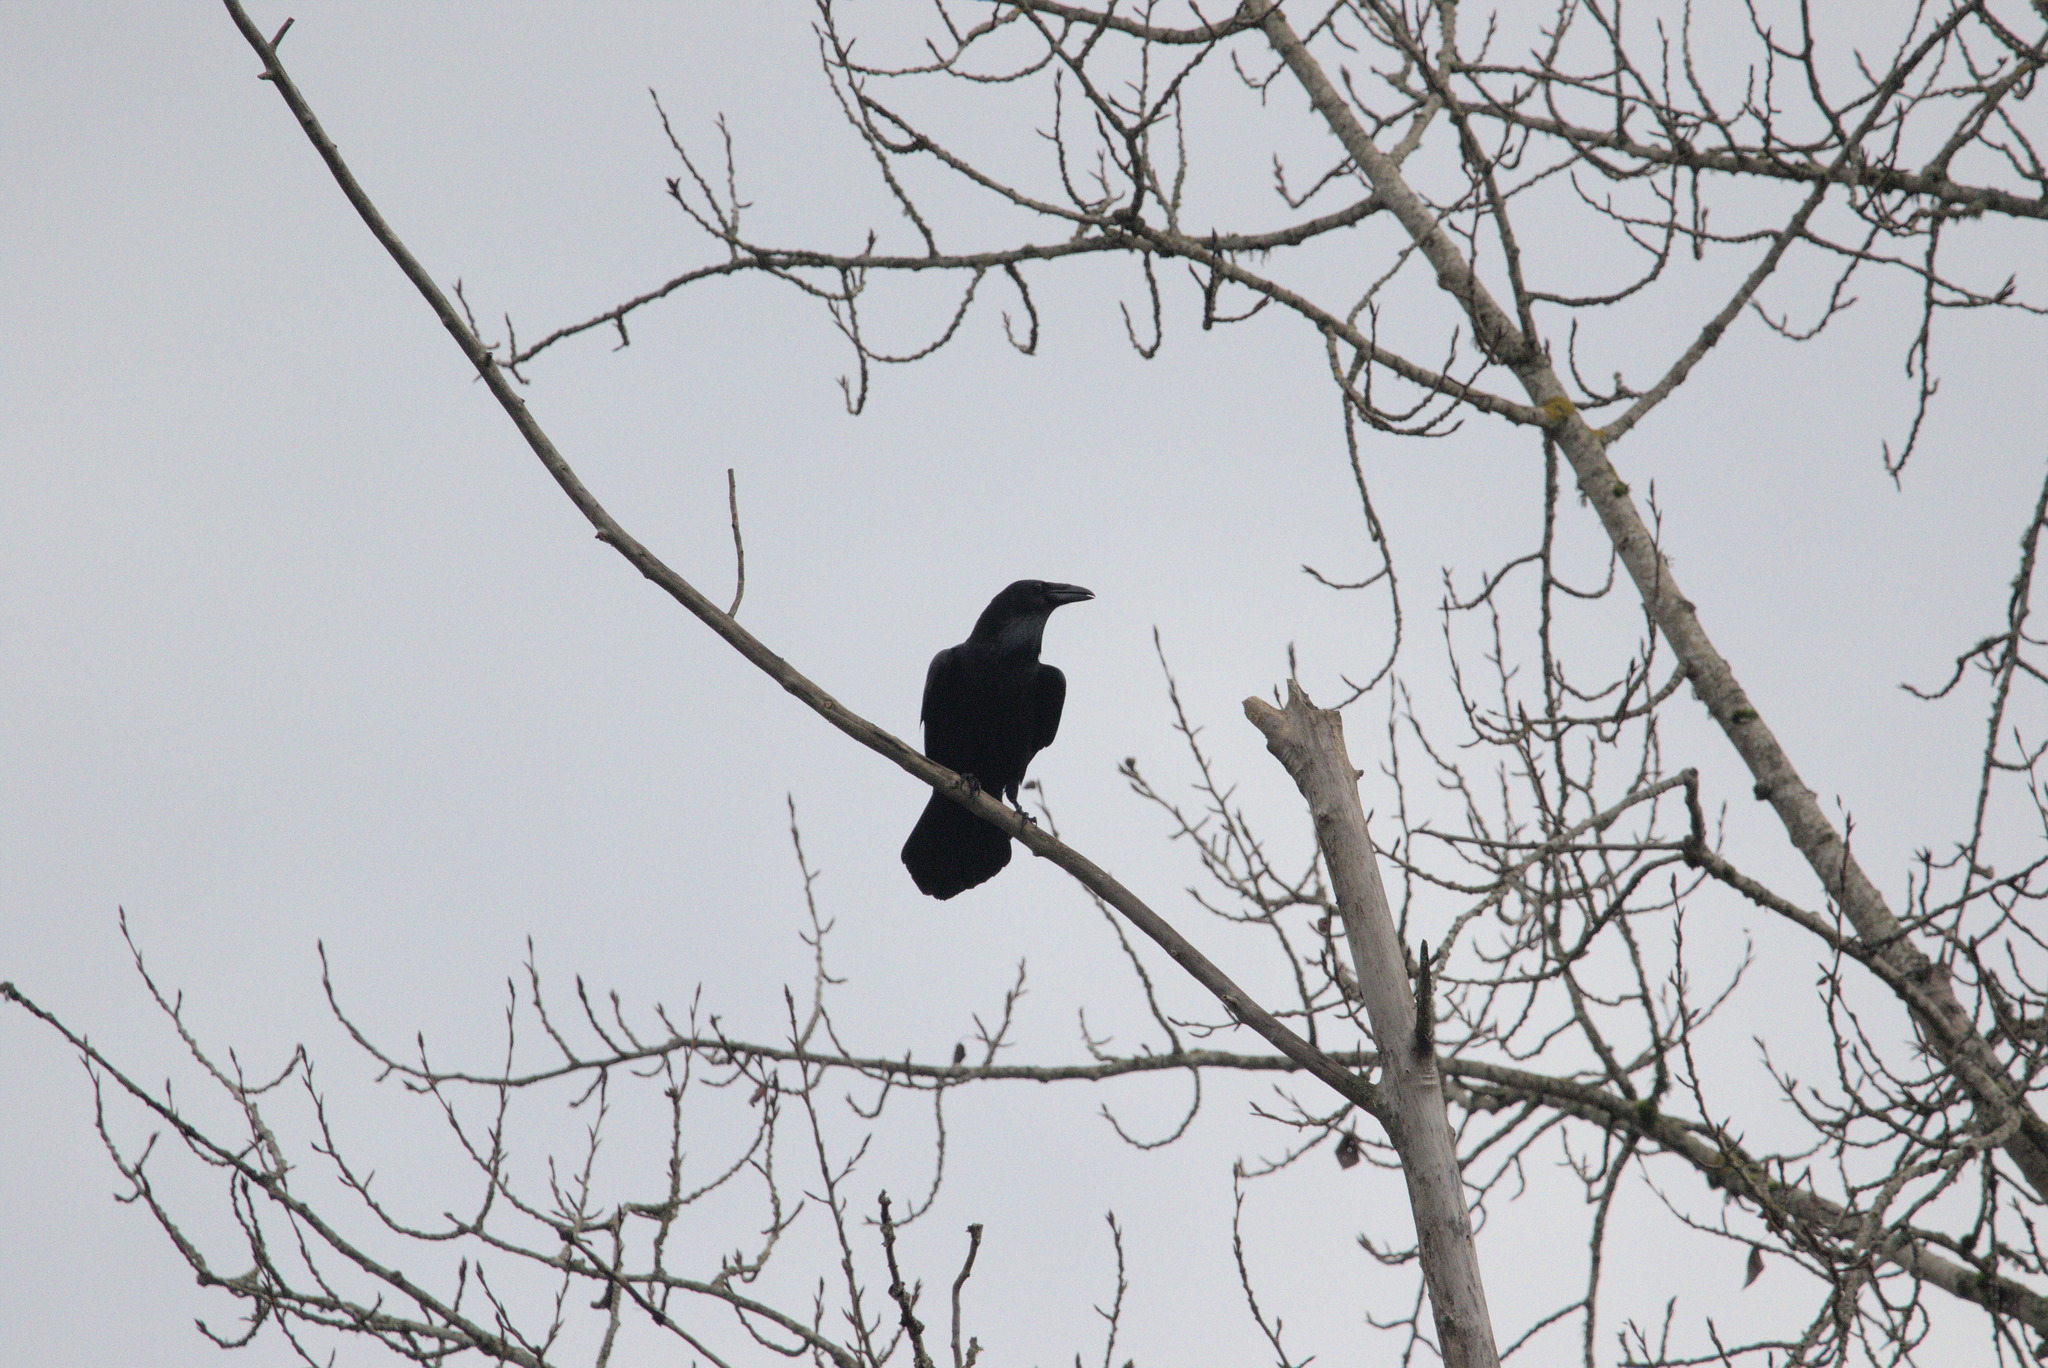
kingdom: Animalia
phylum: Chordata
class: Aves
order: Passeriformes
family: Corvidae
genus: Corvus
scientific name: Corvus corax
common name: Common raven
